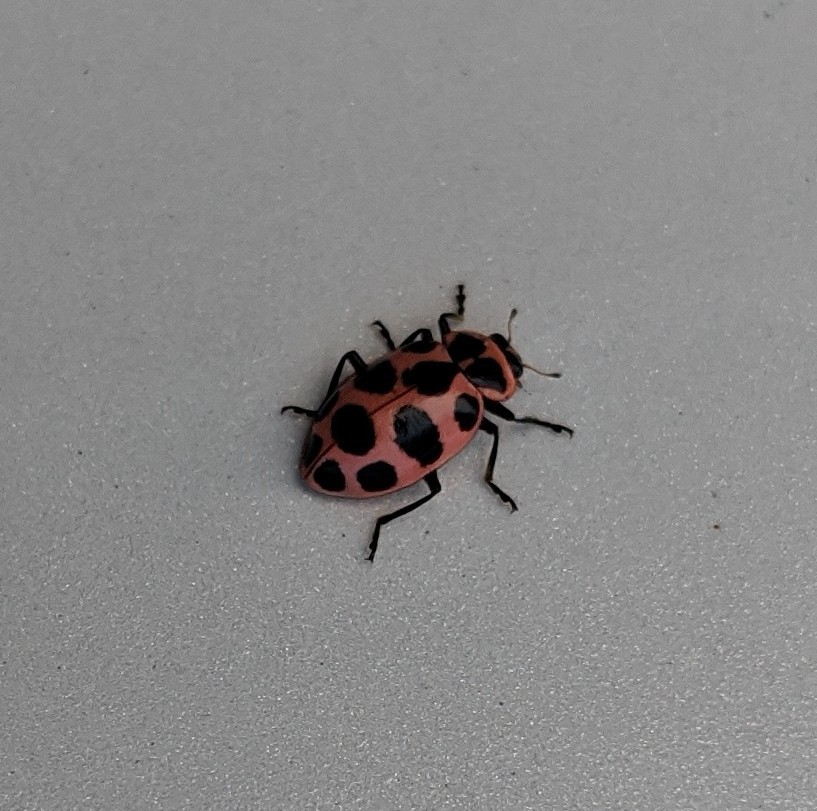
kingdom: Animalia
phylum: Arthropoda
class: Insecta
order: Coleoptera
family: Coccinellidae
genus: Coleomegilla
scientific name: Coleomegilla maculata
